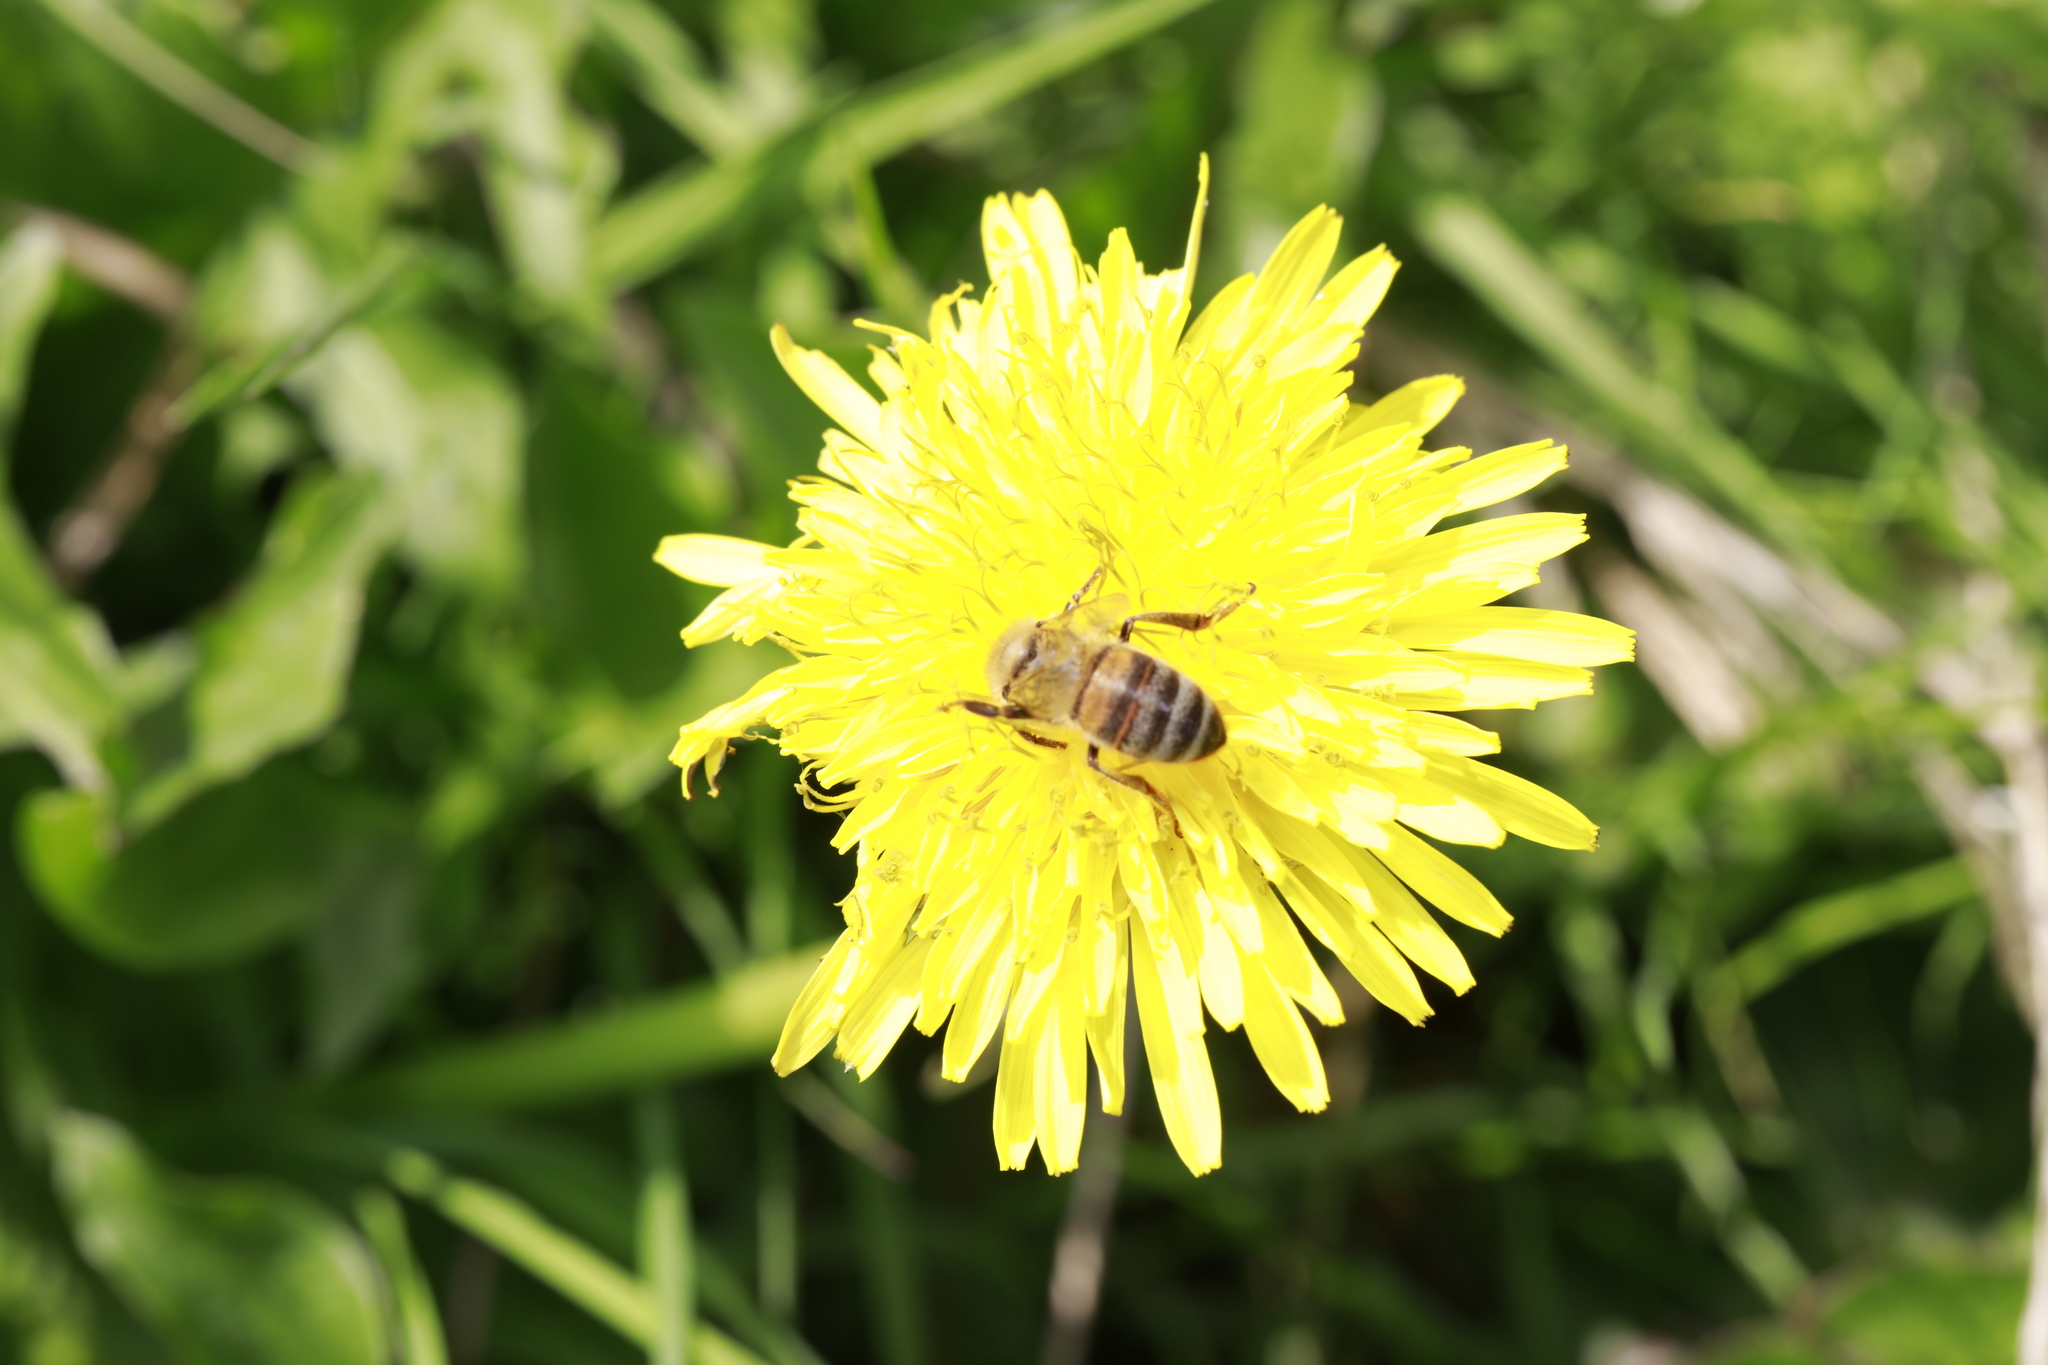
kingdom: Animalia
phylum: Arthropoda
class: Insecta
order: Hymenoptera
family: Apidae
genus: Apis
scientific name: Apis mellifera
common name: Honey bee
